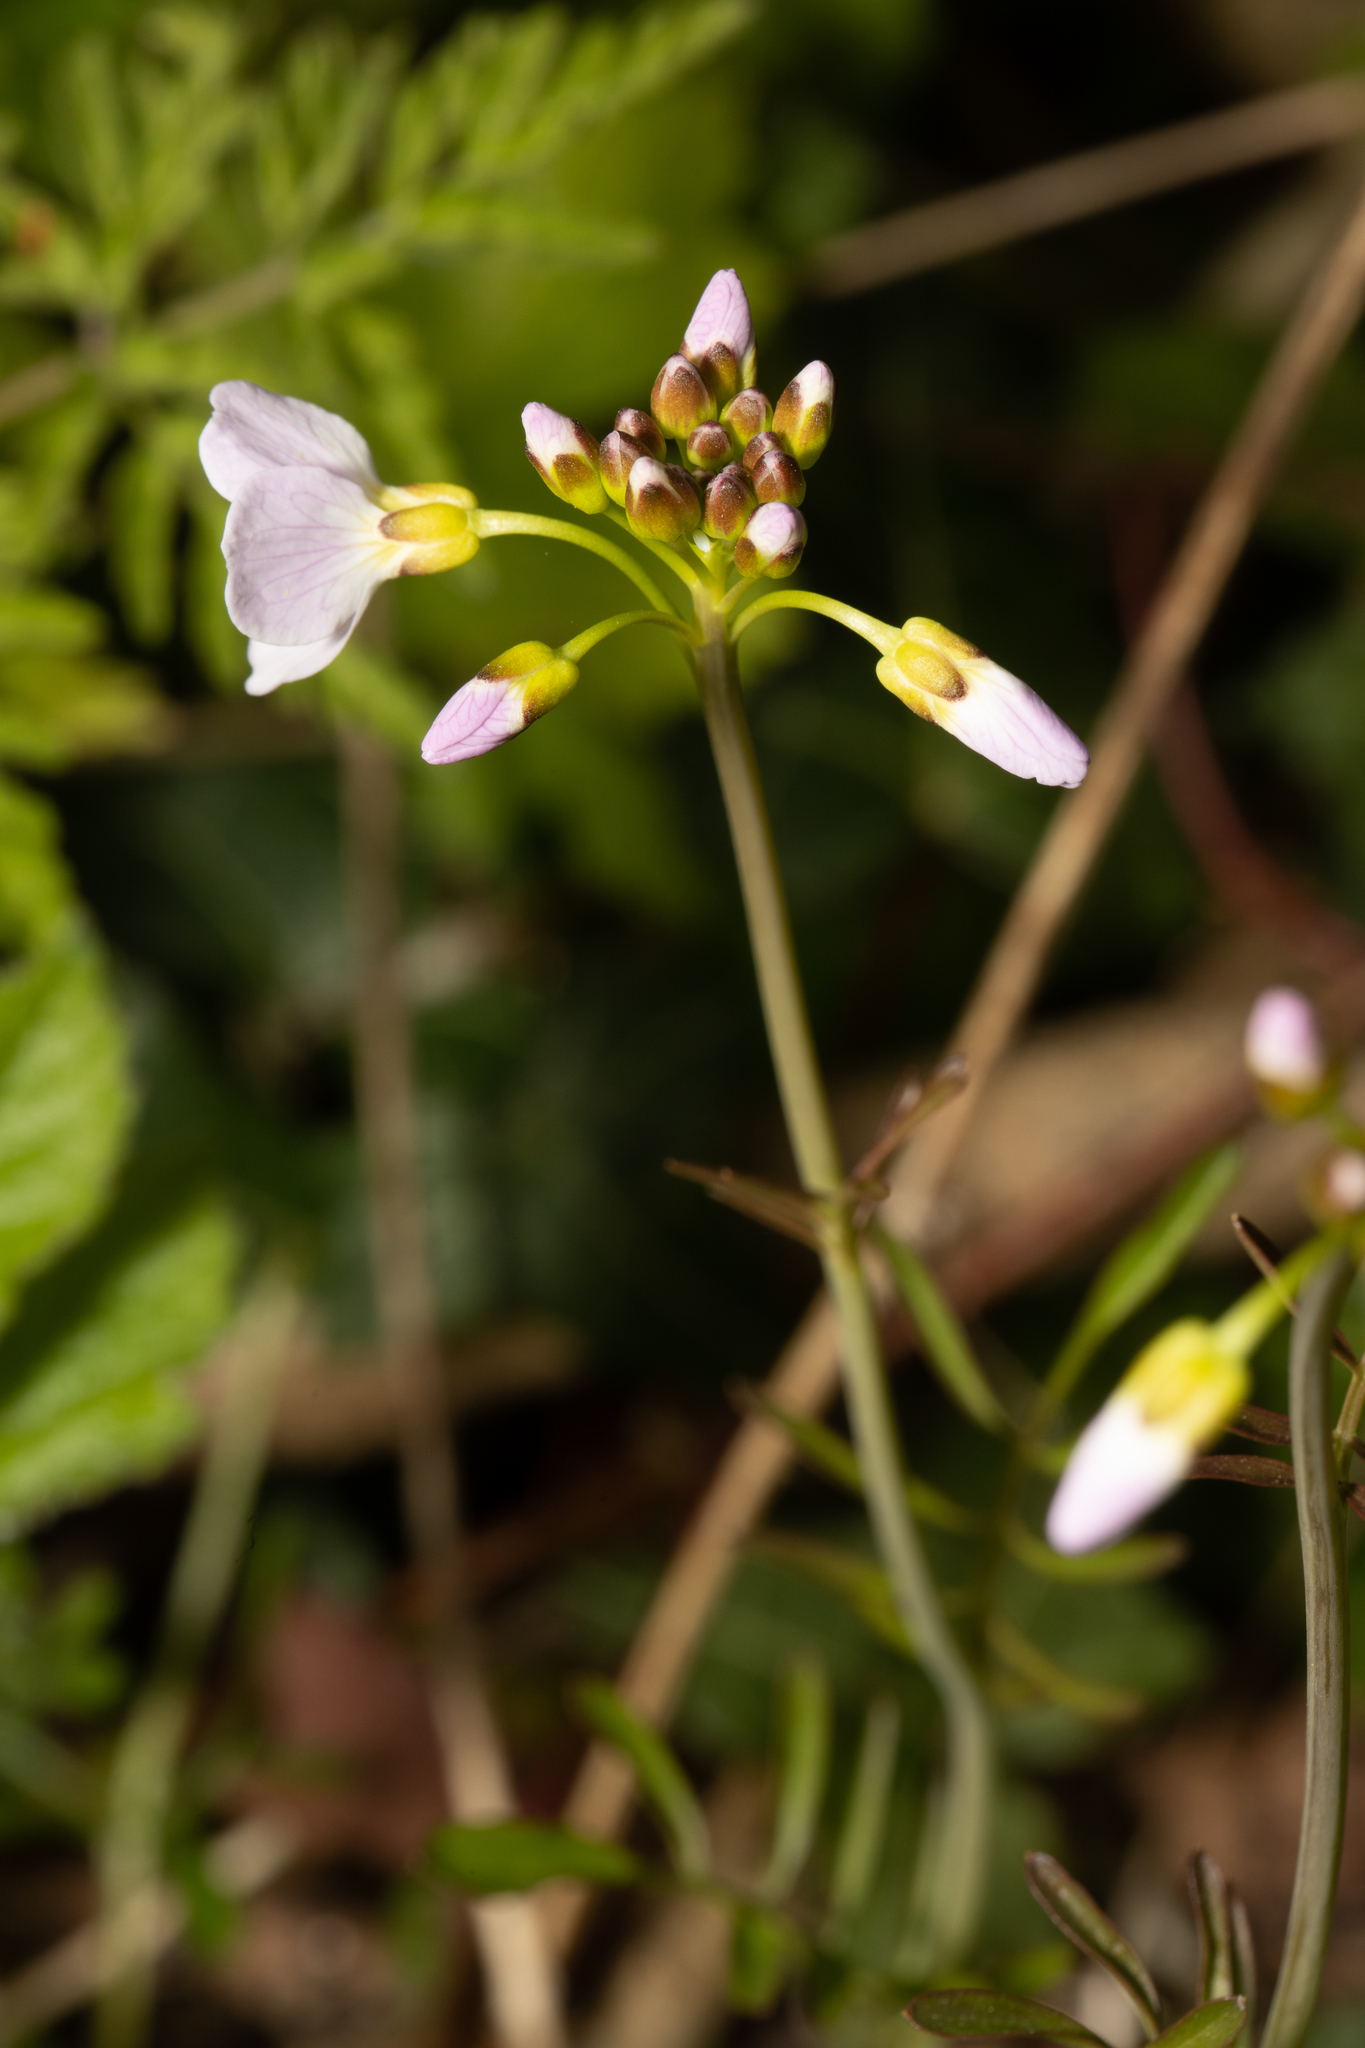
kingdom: Plantae
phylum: Tracheophyta
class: Magnoliopsida
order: Brassicales
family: Brassicaceae
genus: Cardamine
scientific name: Cardamine pratensis
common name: Cuckoo flower
